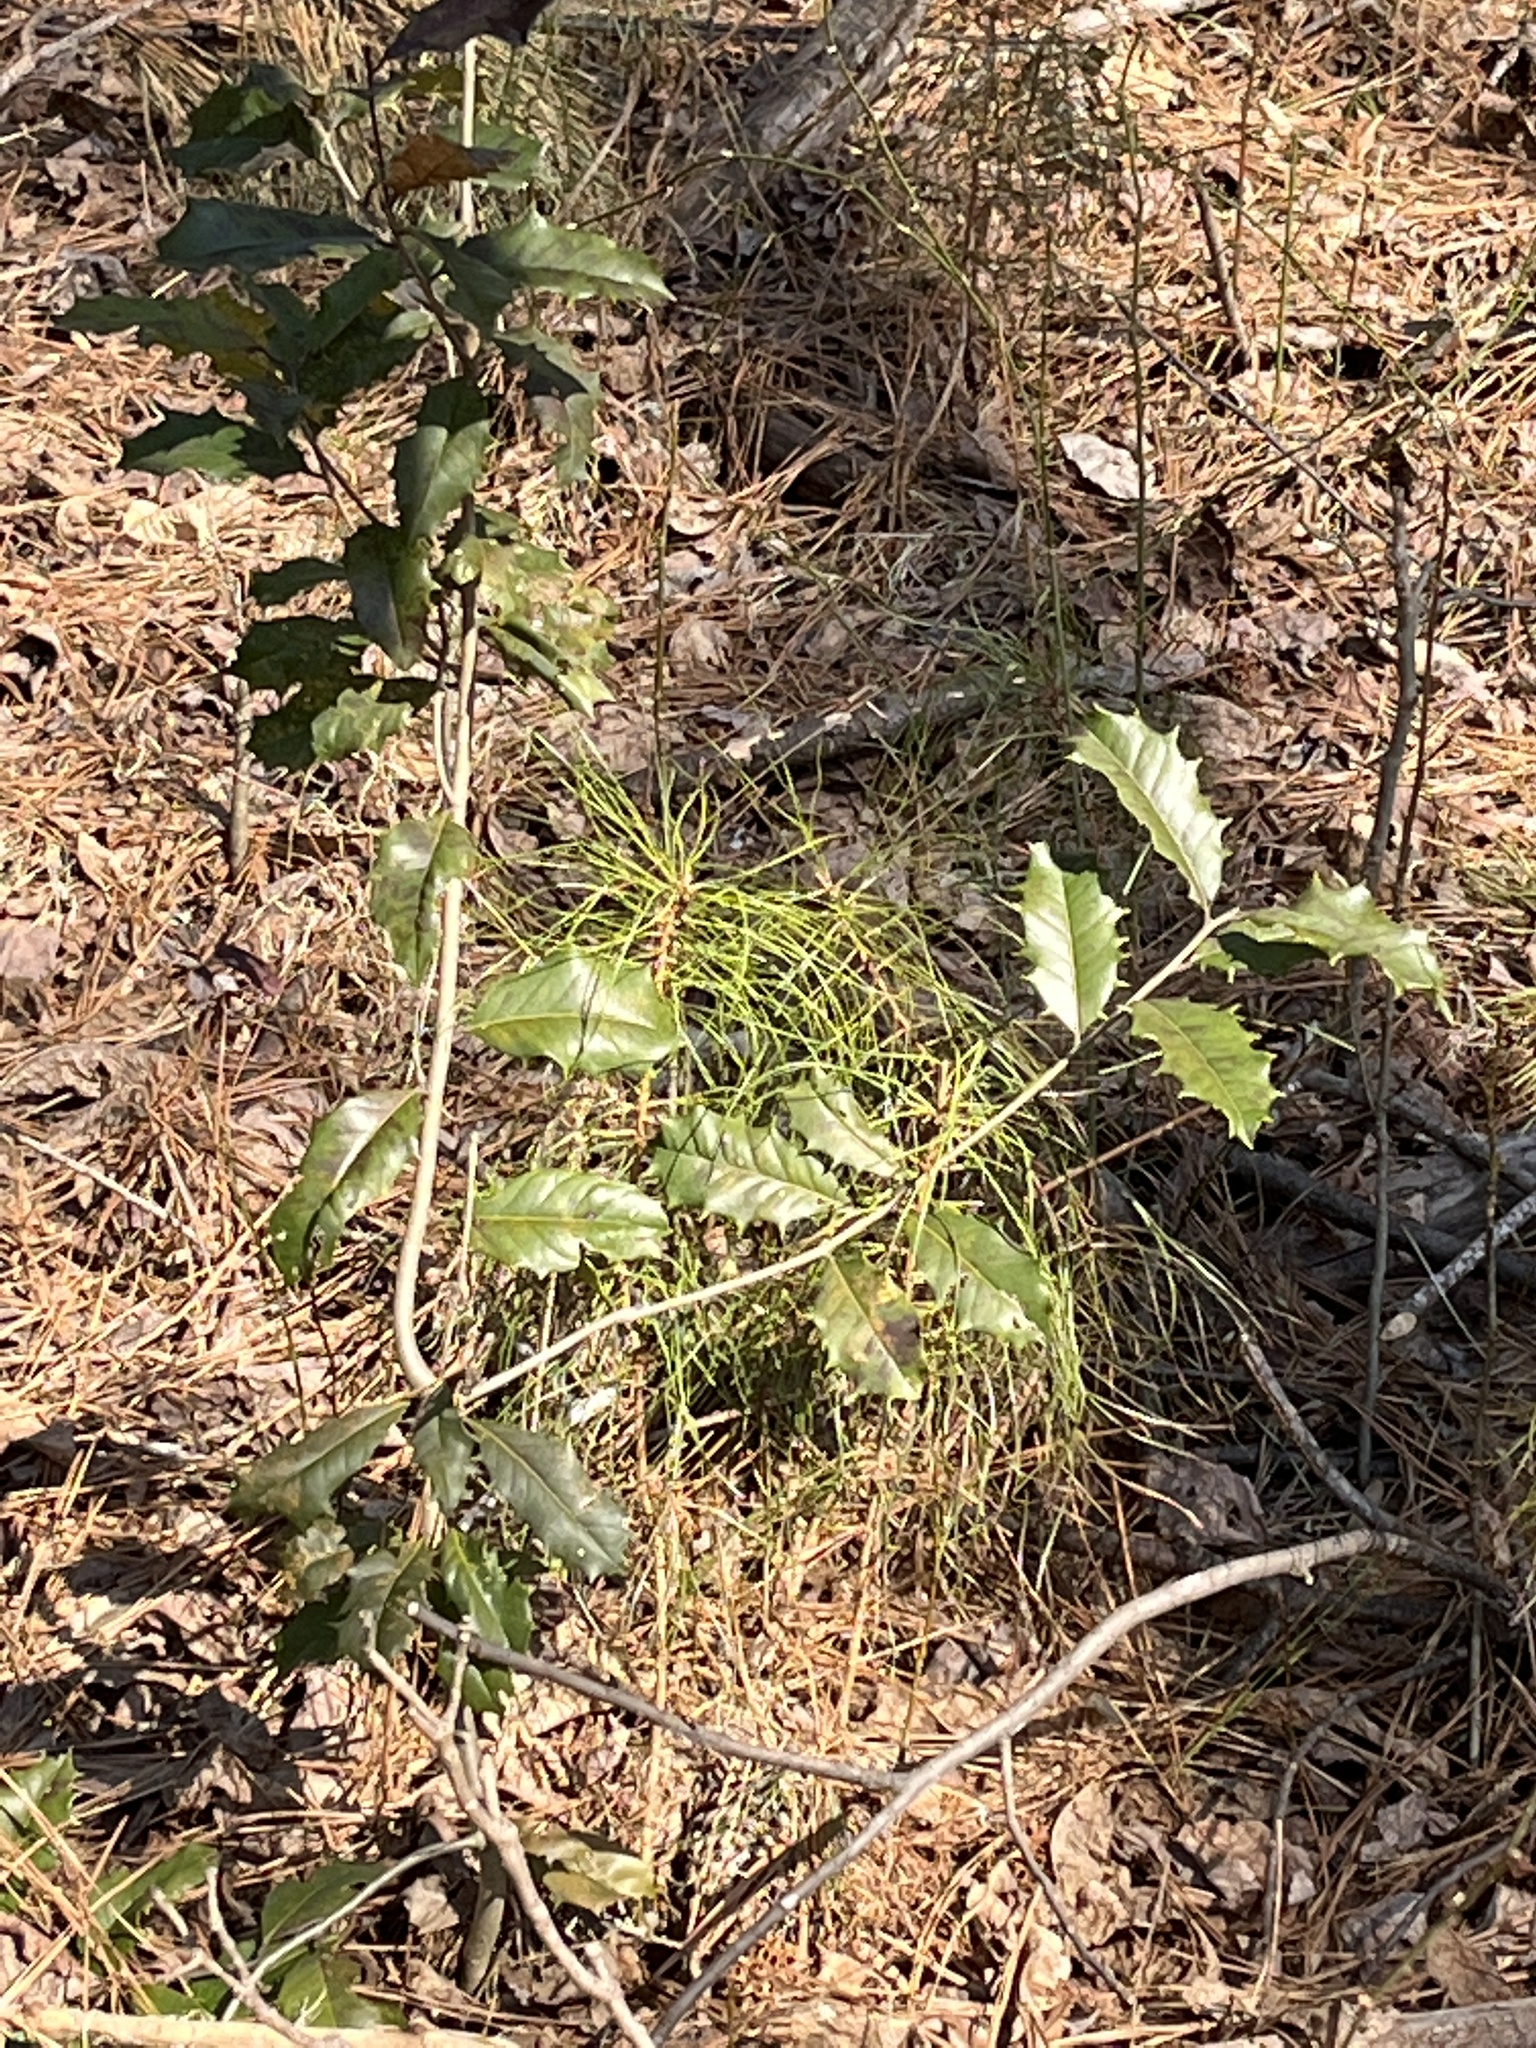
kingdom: Plantae
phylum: Tracheophyta
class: Magnoliopsida
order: Aquifoliales
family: Aquifoliaceae
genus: Ilex
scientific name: Ilex opaca
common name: American holly
